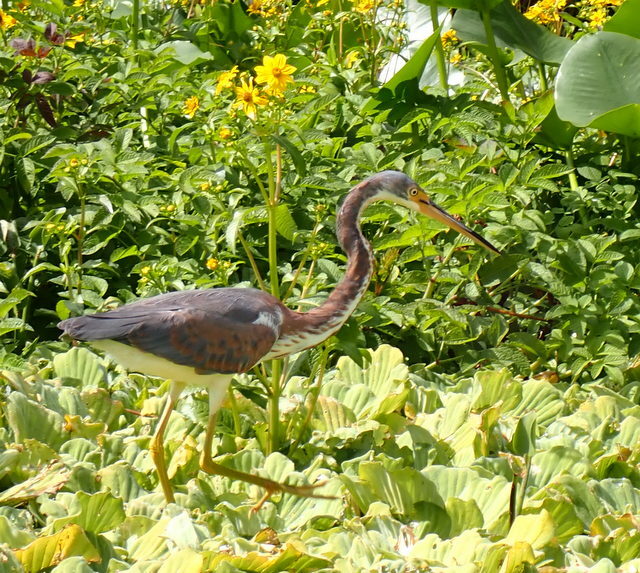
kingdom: Animalia
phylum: Chordata
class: Aves
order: Pelecaniformes
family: Ardeidae
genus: Egretta
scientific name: Egretta tricolor
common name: Tricolored heron
